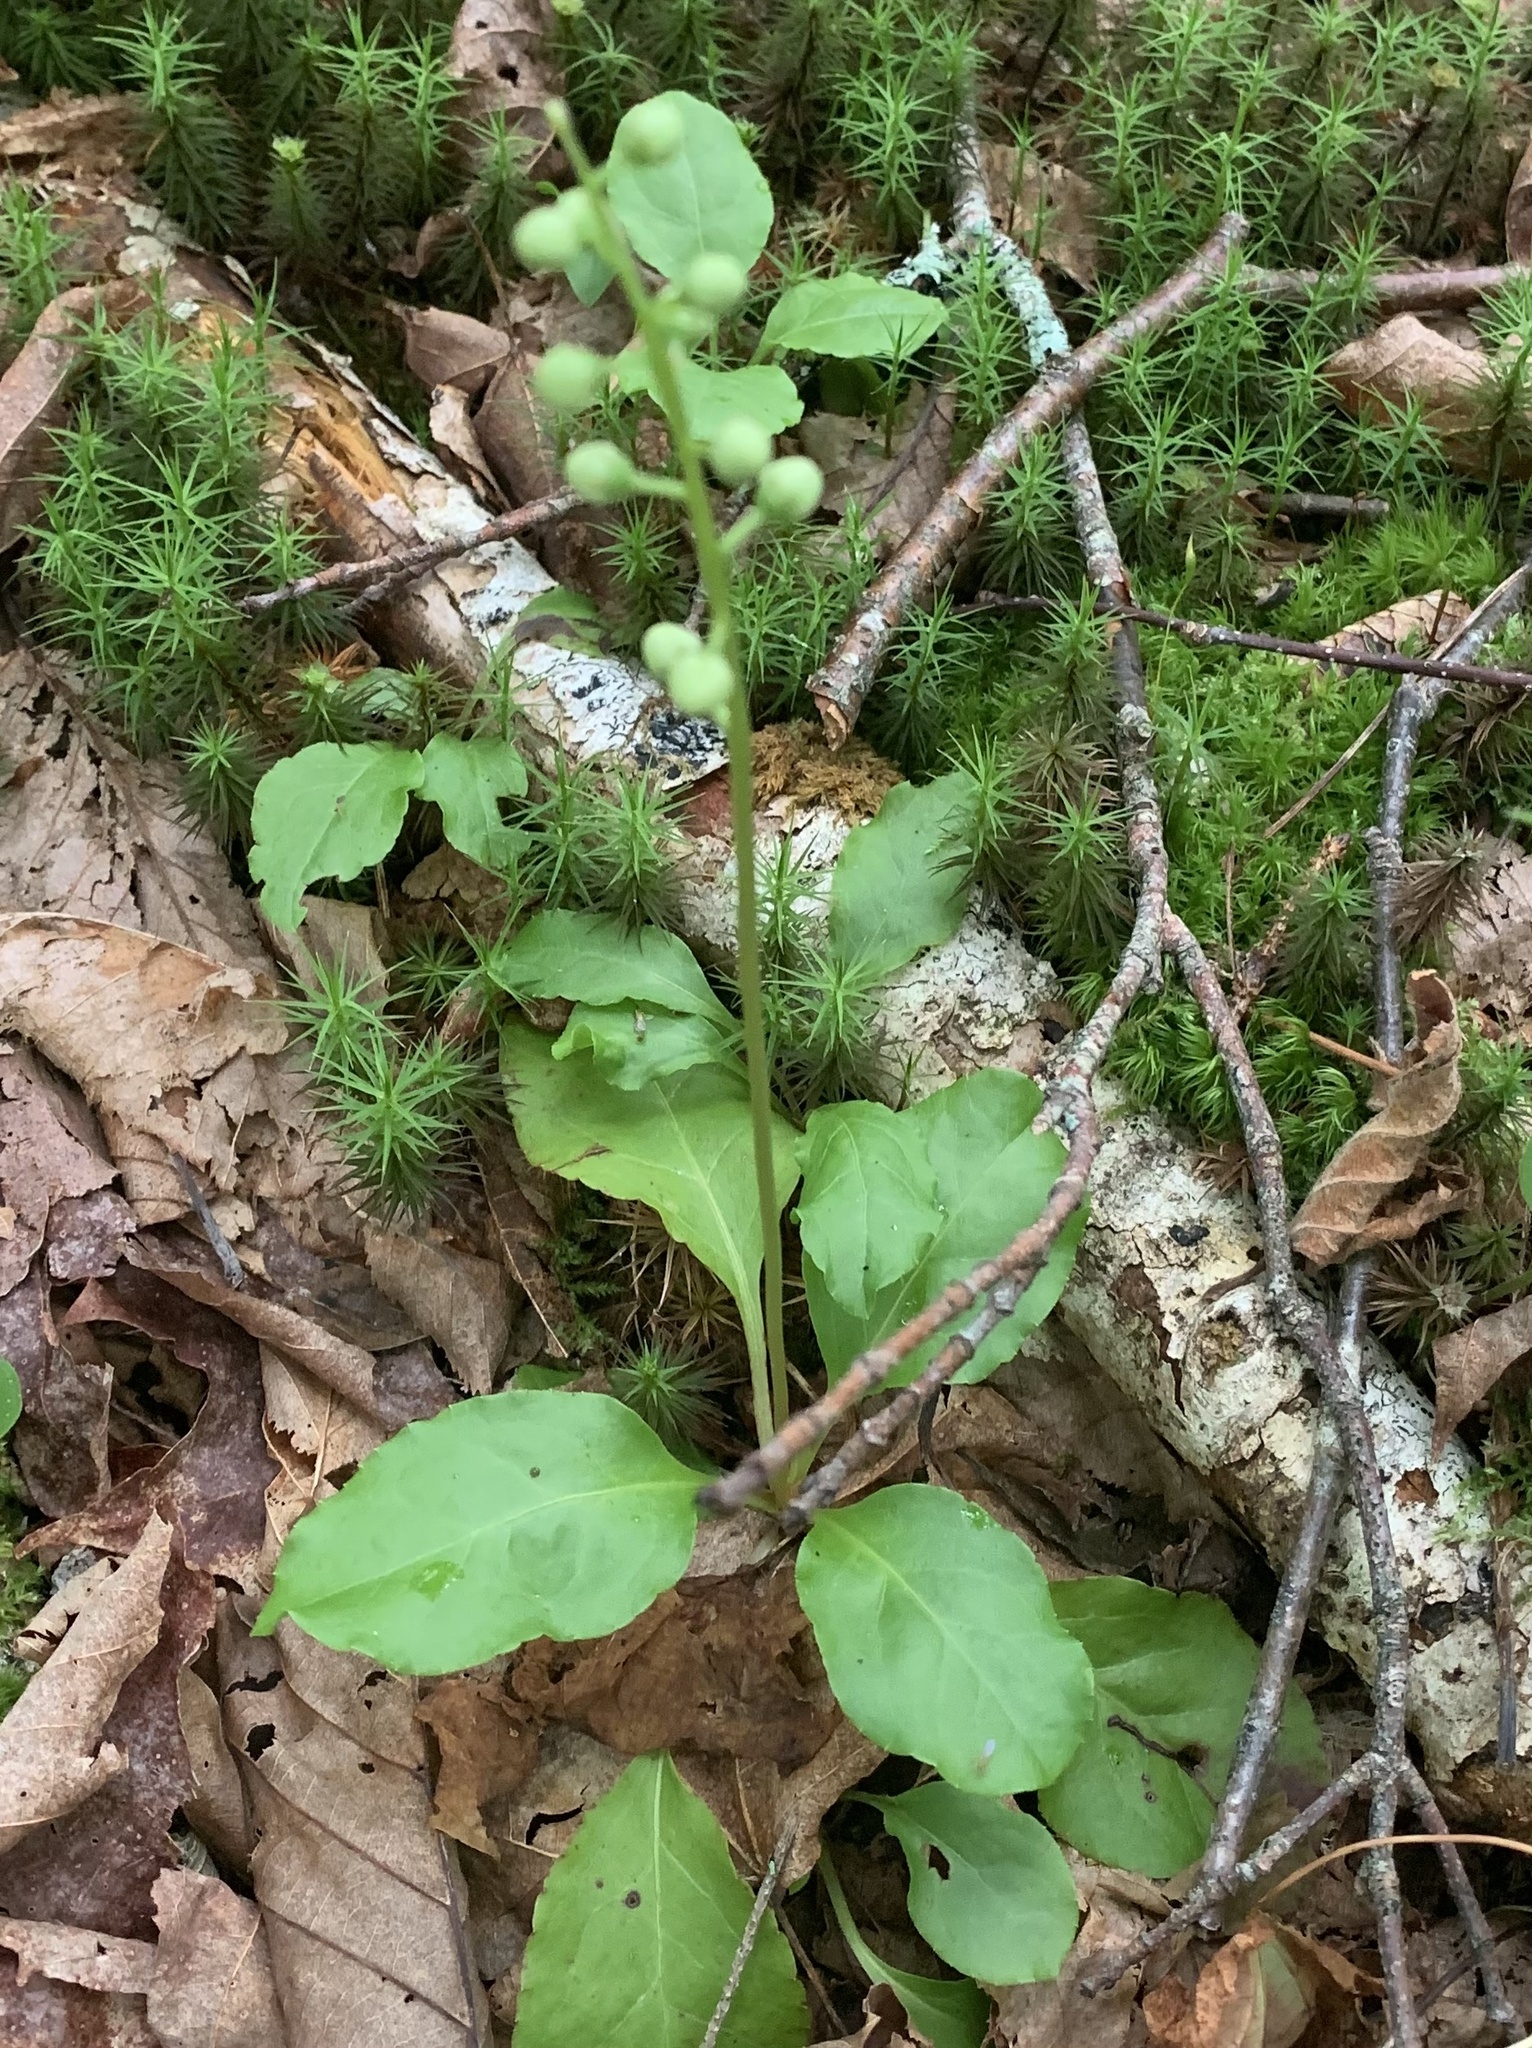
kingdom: Plantae
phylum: Tracheophyta
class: Magnoliopsida
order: Ericales
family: Ericaceae
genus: Pyrola
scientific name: Pyrola elliptica
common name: Shinleaf
